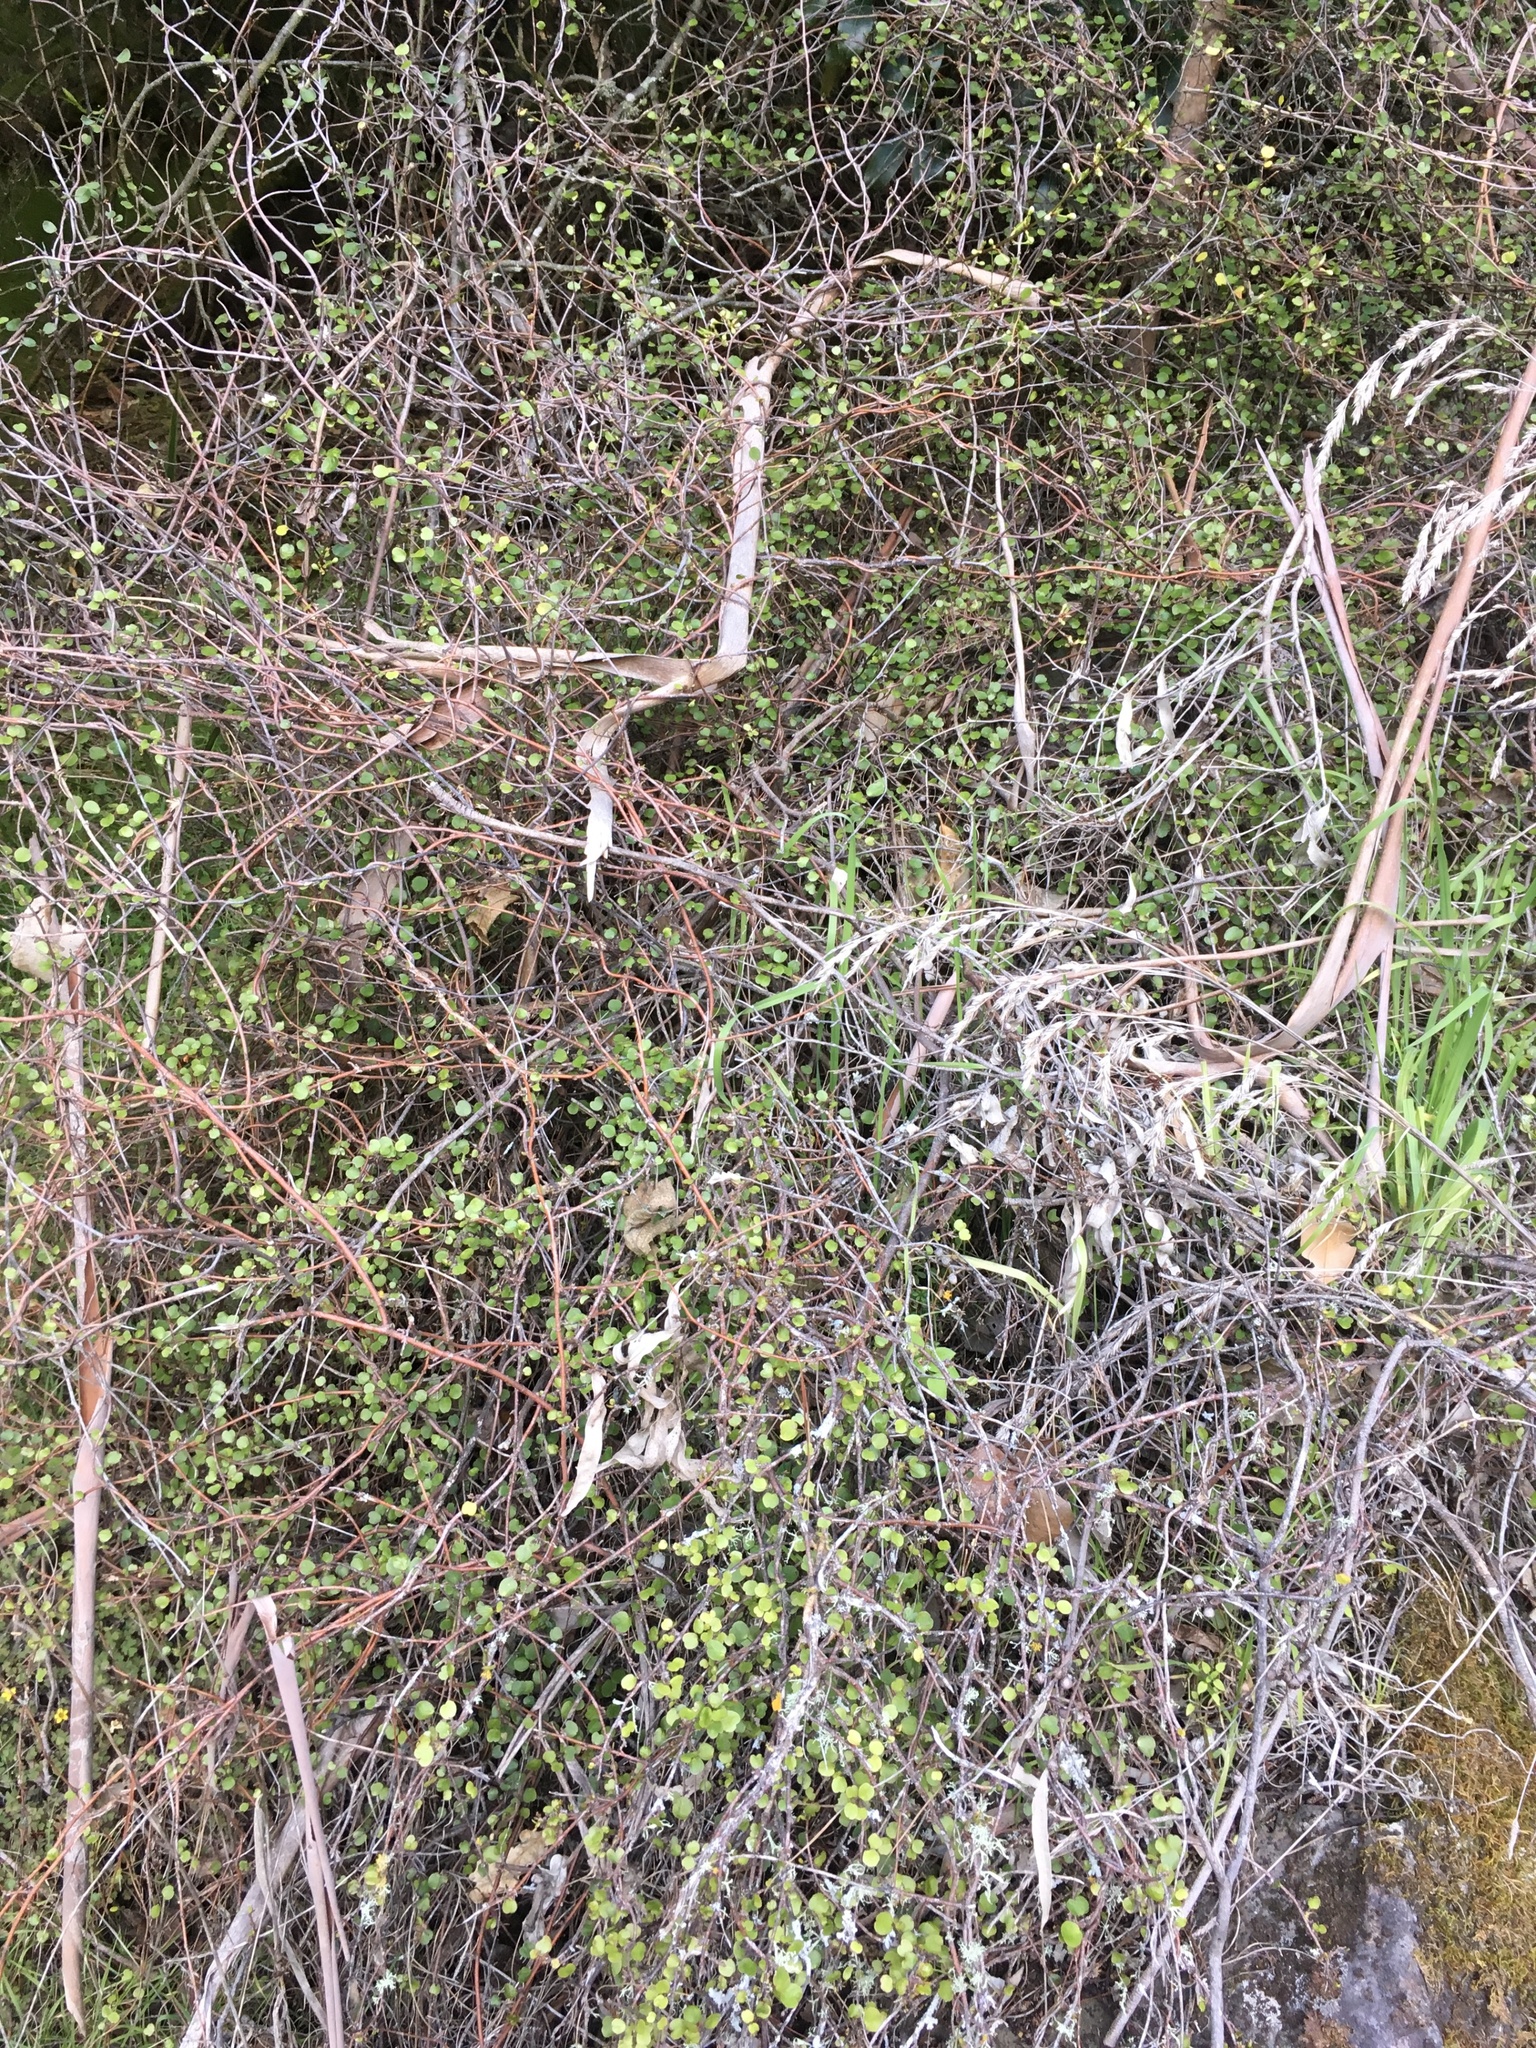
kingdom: Plantae
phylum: Tracheophyta
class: Magnoliopsida
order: Caryophyllales
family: Polygonaceae
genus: Muehlenbeckia
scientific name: Muehlenbeckia complexa
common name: Wireplant
